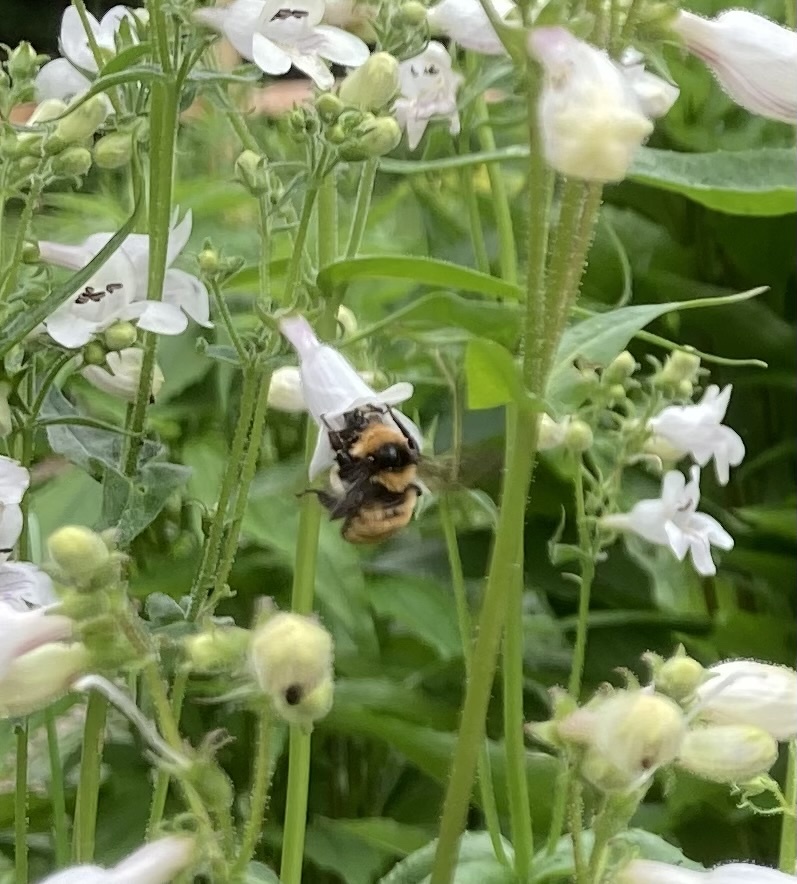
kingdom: Animalia
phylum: Arthropoda
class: Insecta
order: Hymenoptera
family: Apidae
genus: Bombus
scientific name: Bombus borealis
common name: Northern amber bumble bee
